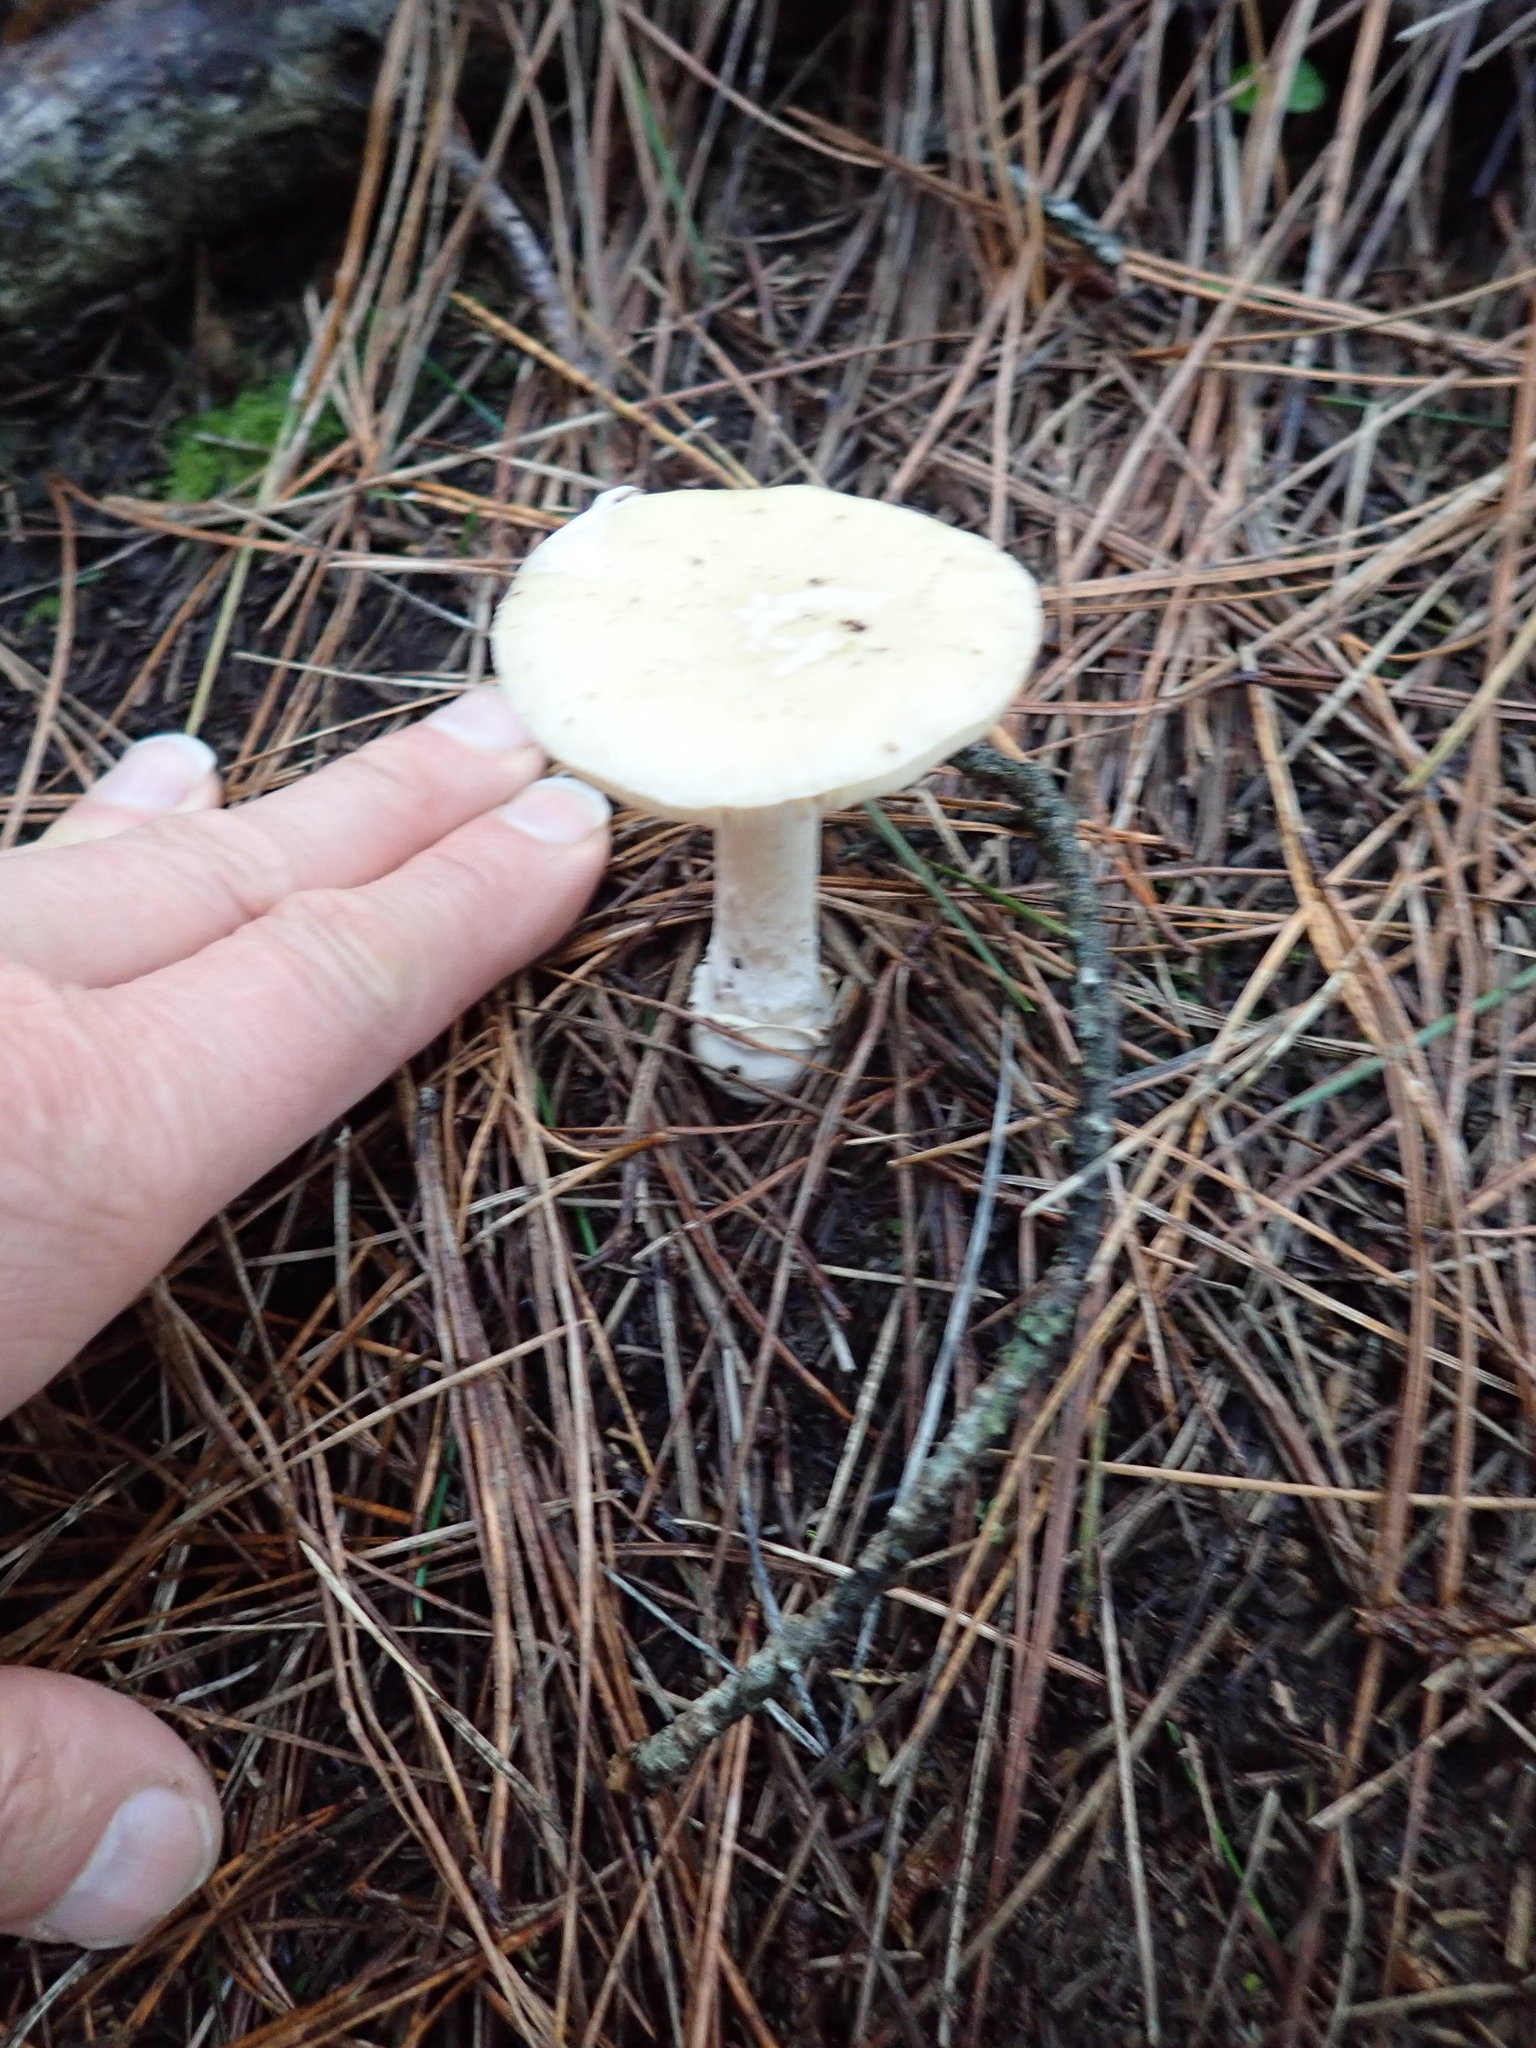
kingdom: Fungi
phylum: Basidiomycota
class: Agaricomycetes
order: Agaricales
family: Amanitaceae
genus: Amanita
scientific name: Amanita gemmata
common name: Jewelled amanita
